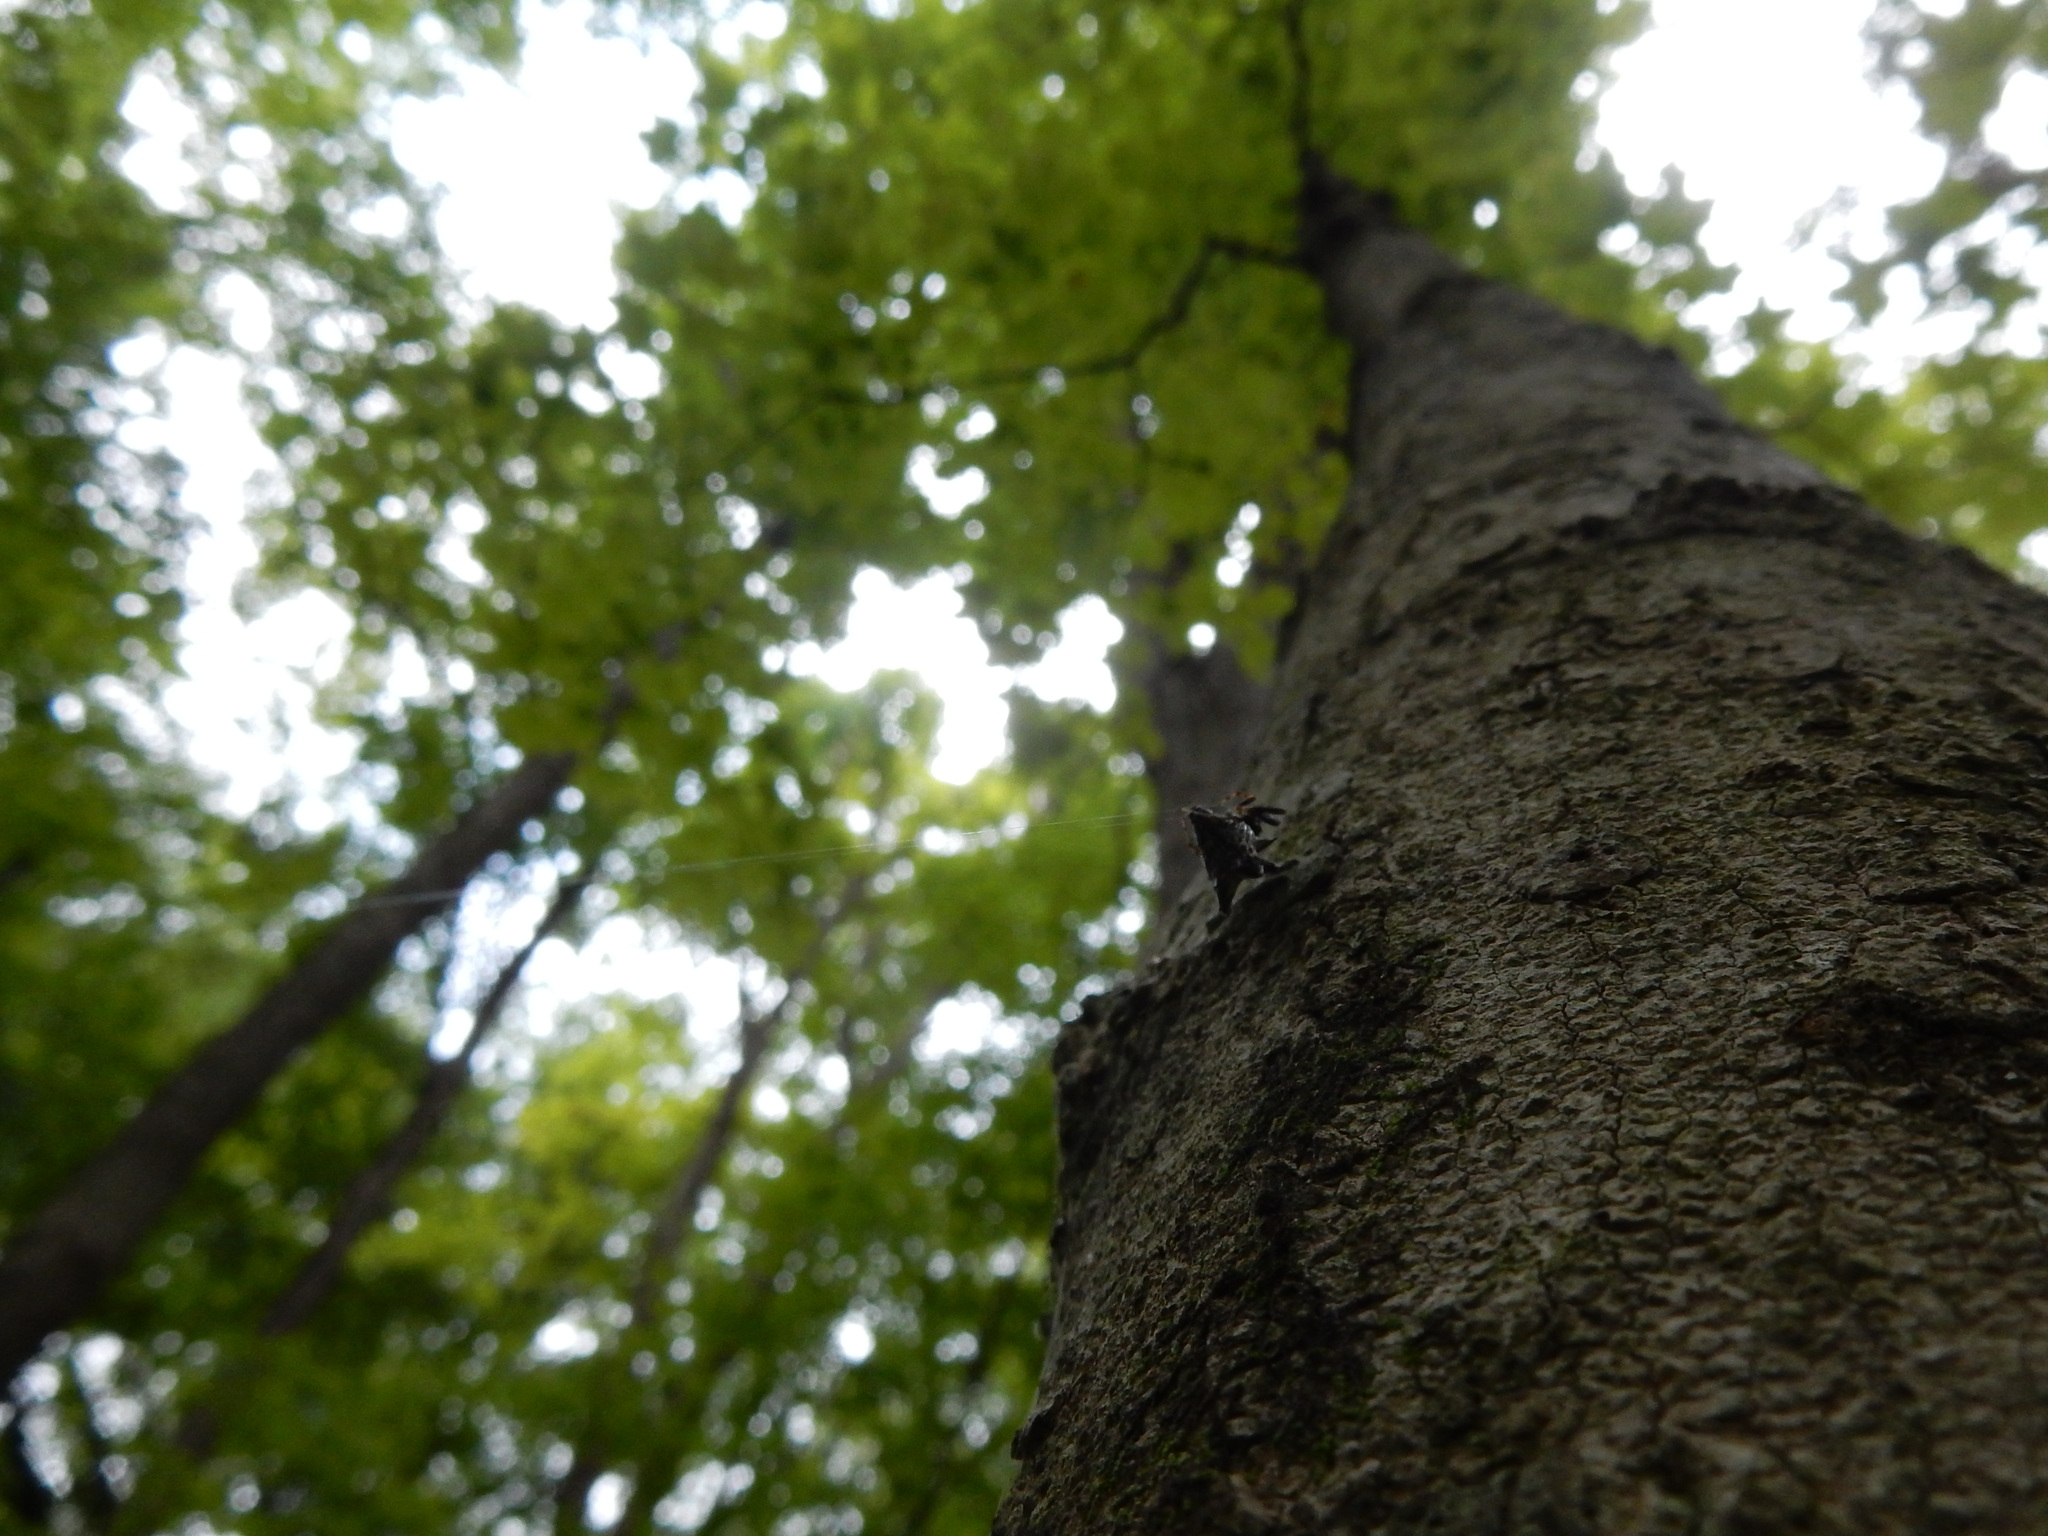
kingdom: Animalia
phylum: Arthropoda
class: Arachnida
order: Araneae
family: Araneidae
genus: Micrathena
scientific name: Micrathena gracilis
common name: Orb weavers
